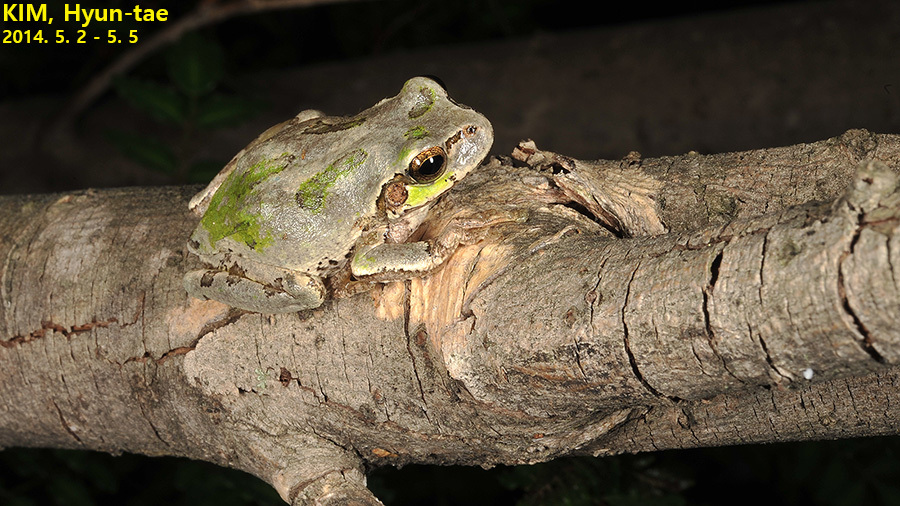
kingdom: Animalia
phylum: Chordata
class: Amphibia
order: Anura
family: Hylidae
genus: Dryophytes
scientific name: Dryophytes japonicus
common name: Japanese treefrog
